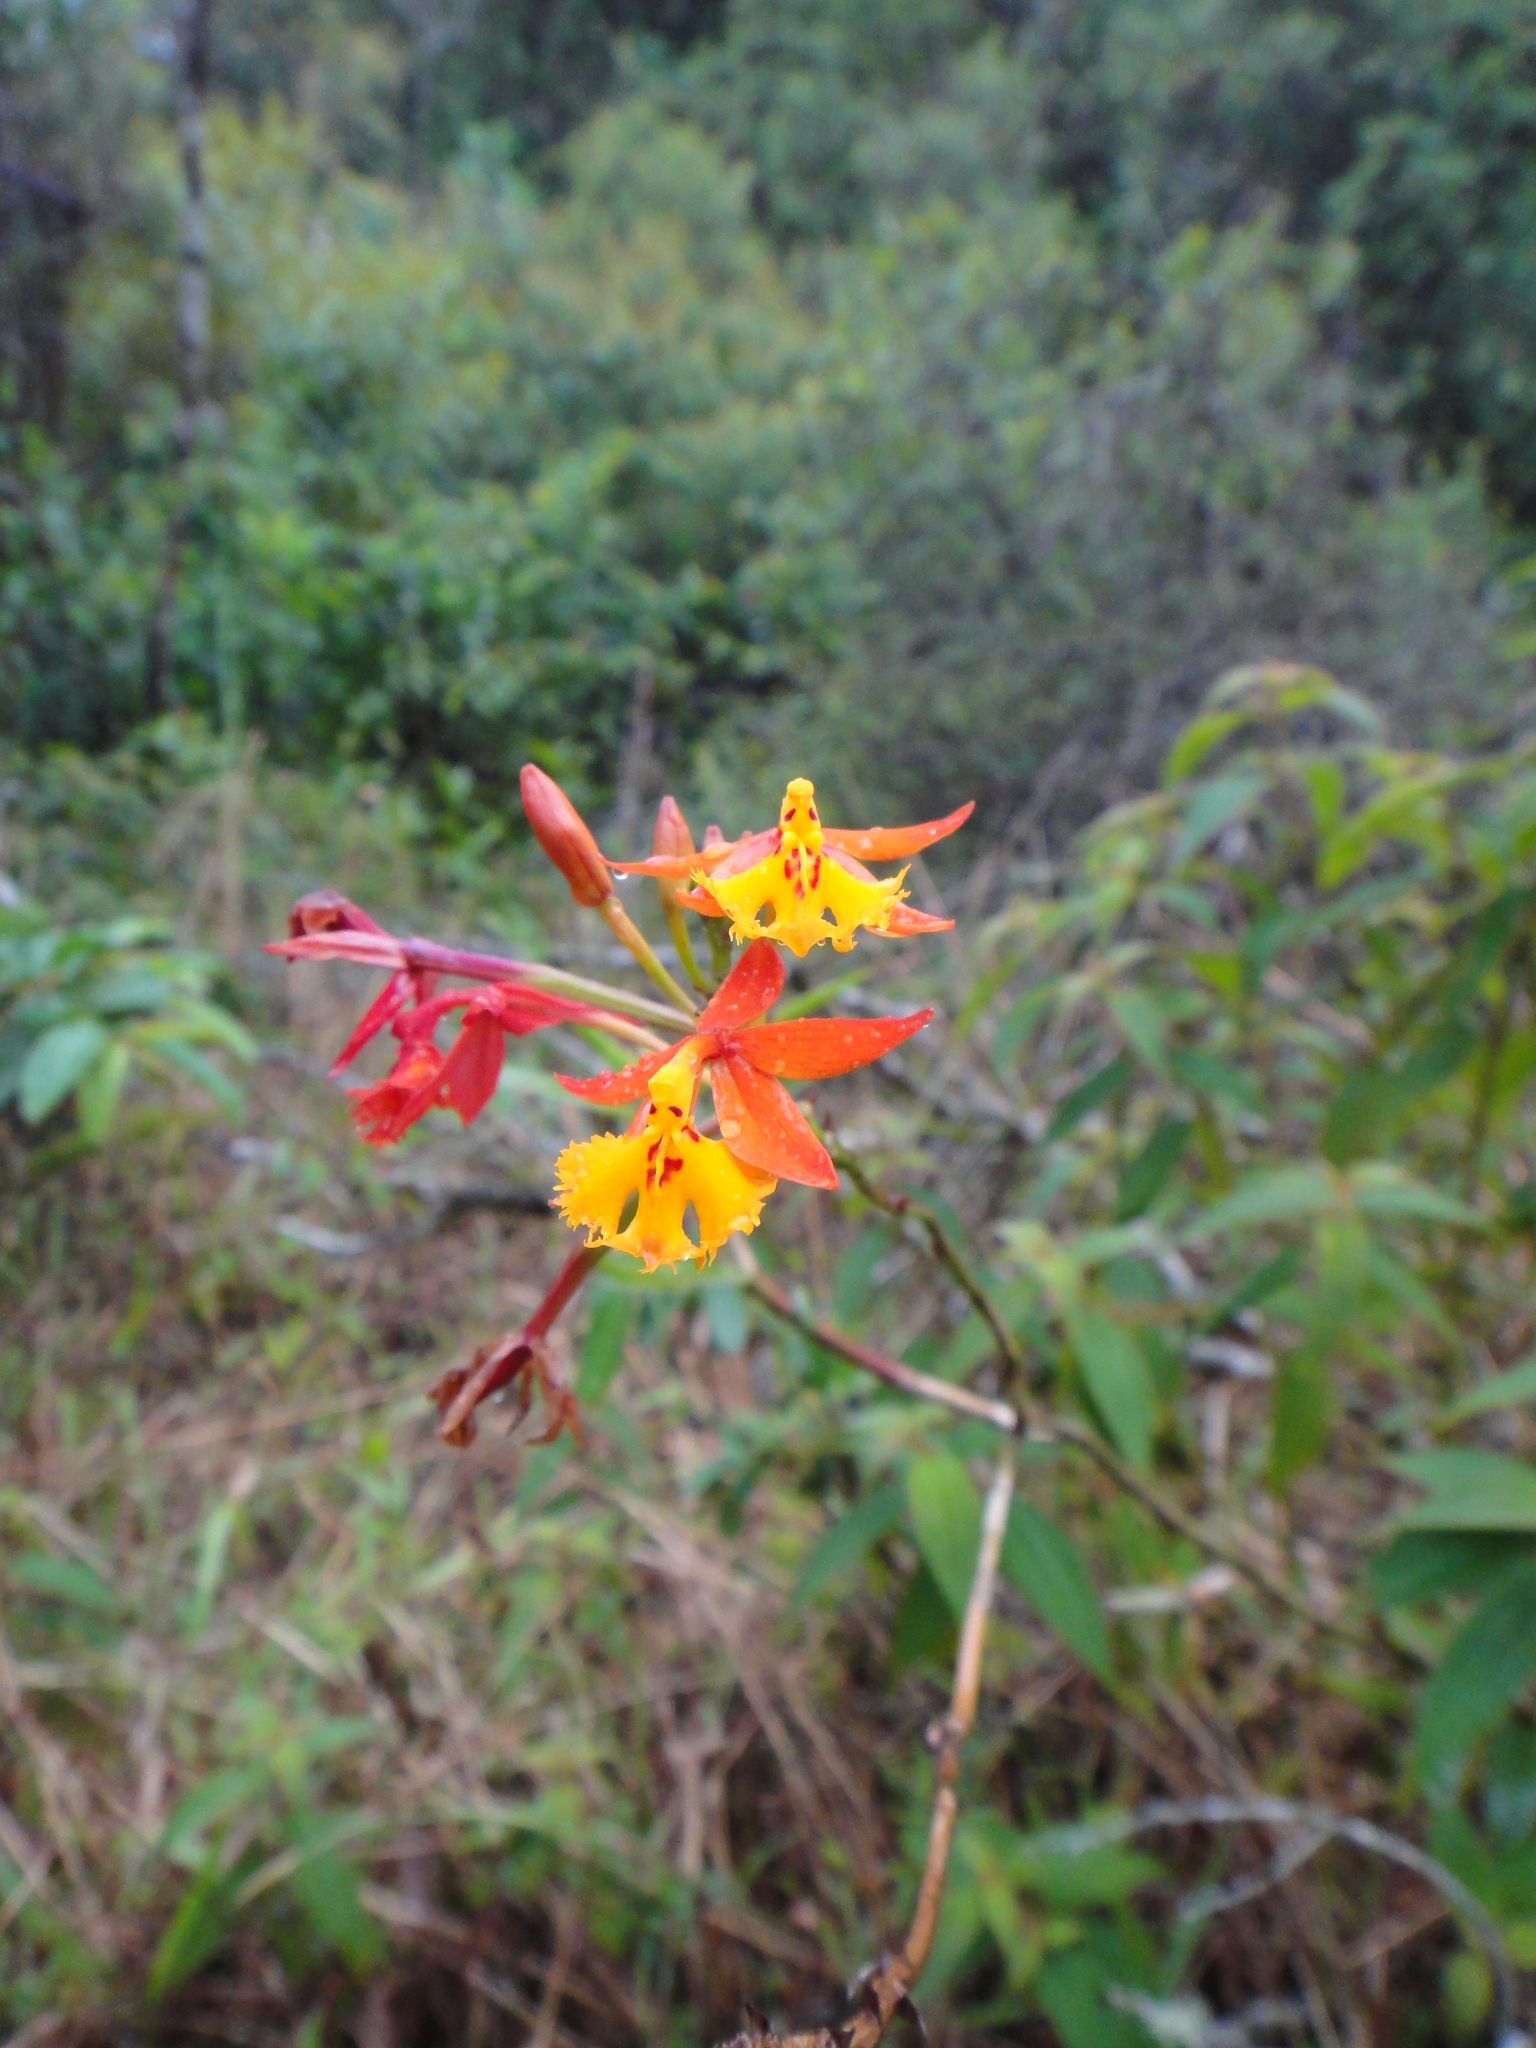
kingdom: Plantae
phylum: Tracheophyta
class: Liliopsida
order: Asparagales
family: Orchidaceae
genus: Epidendrum
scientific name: Epidendrum radicans
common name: Fire star orchid
